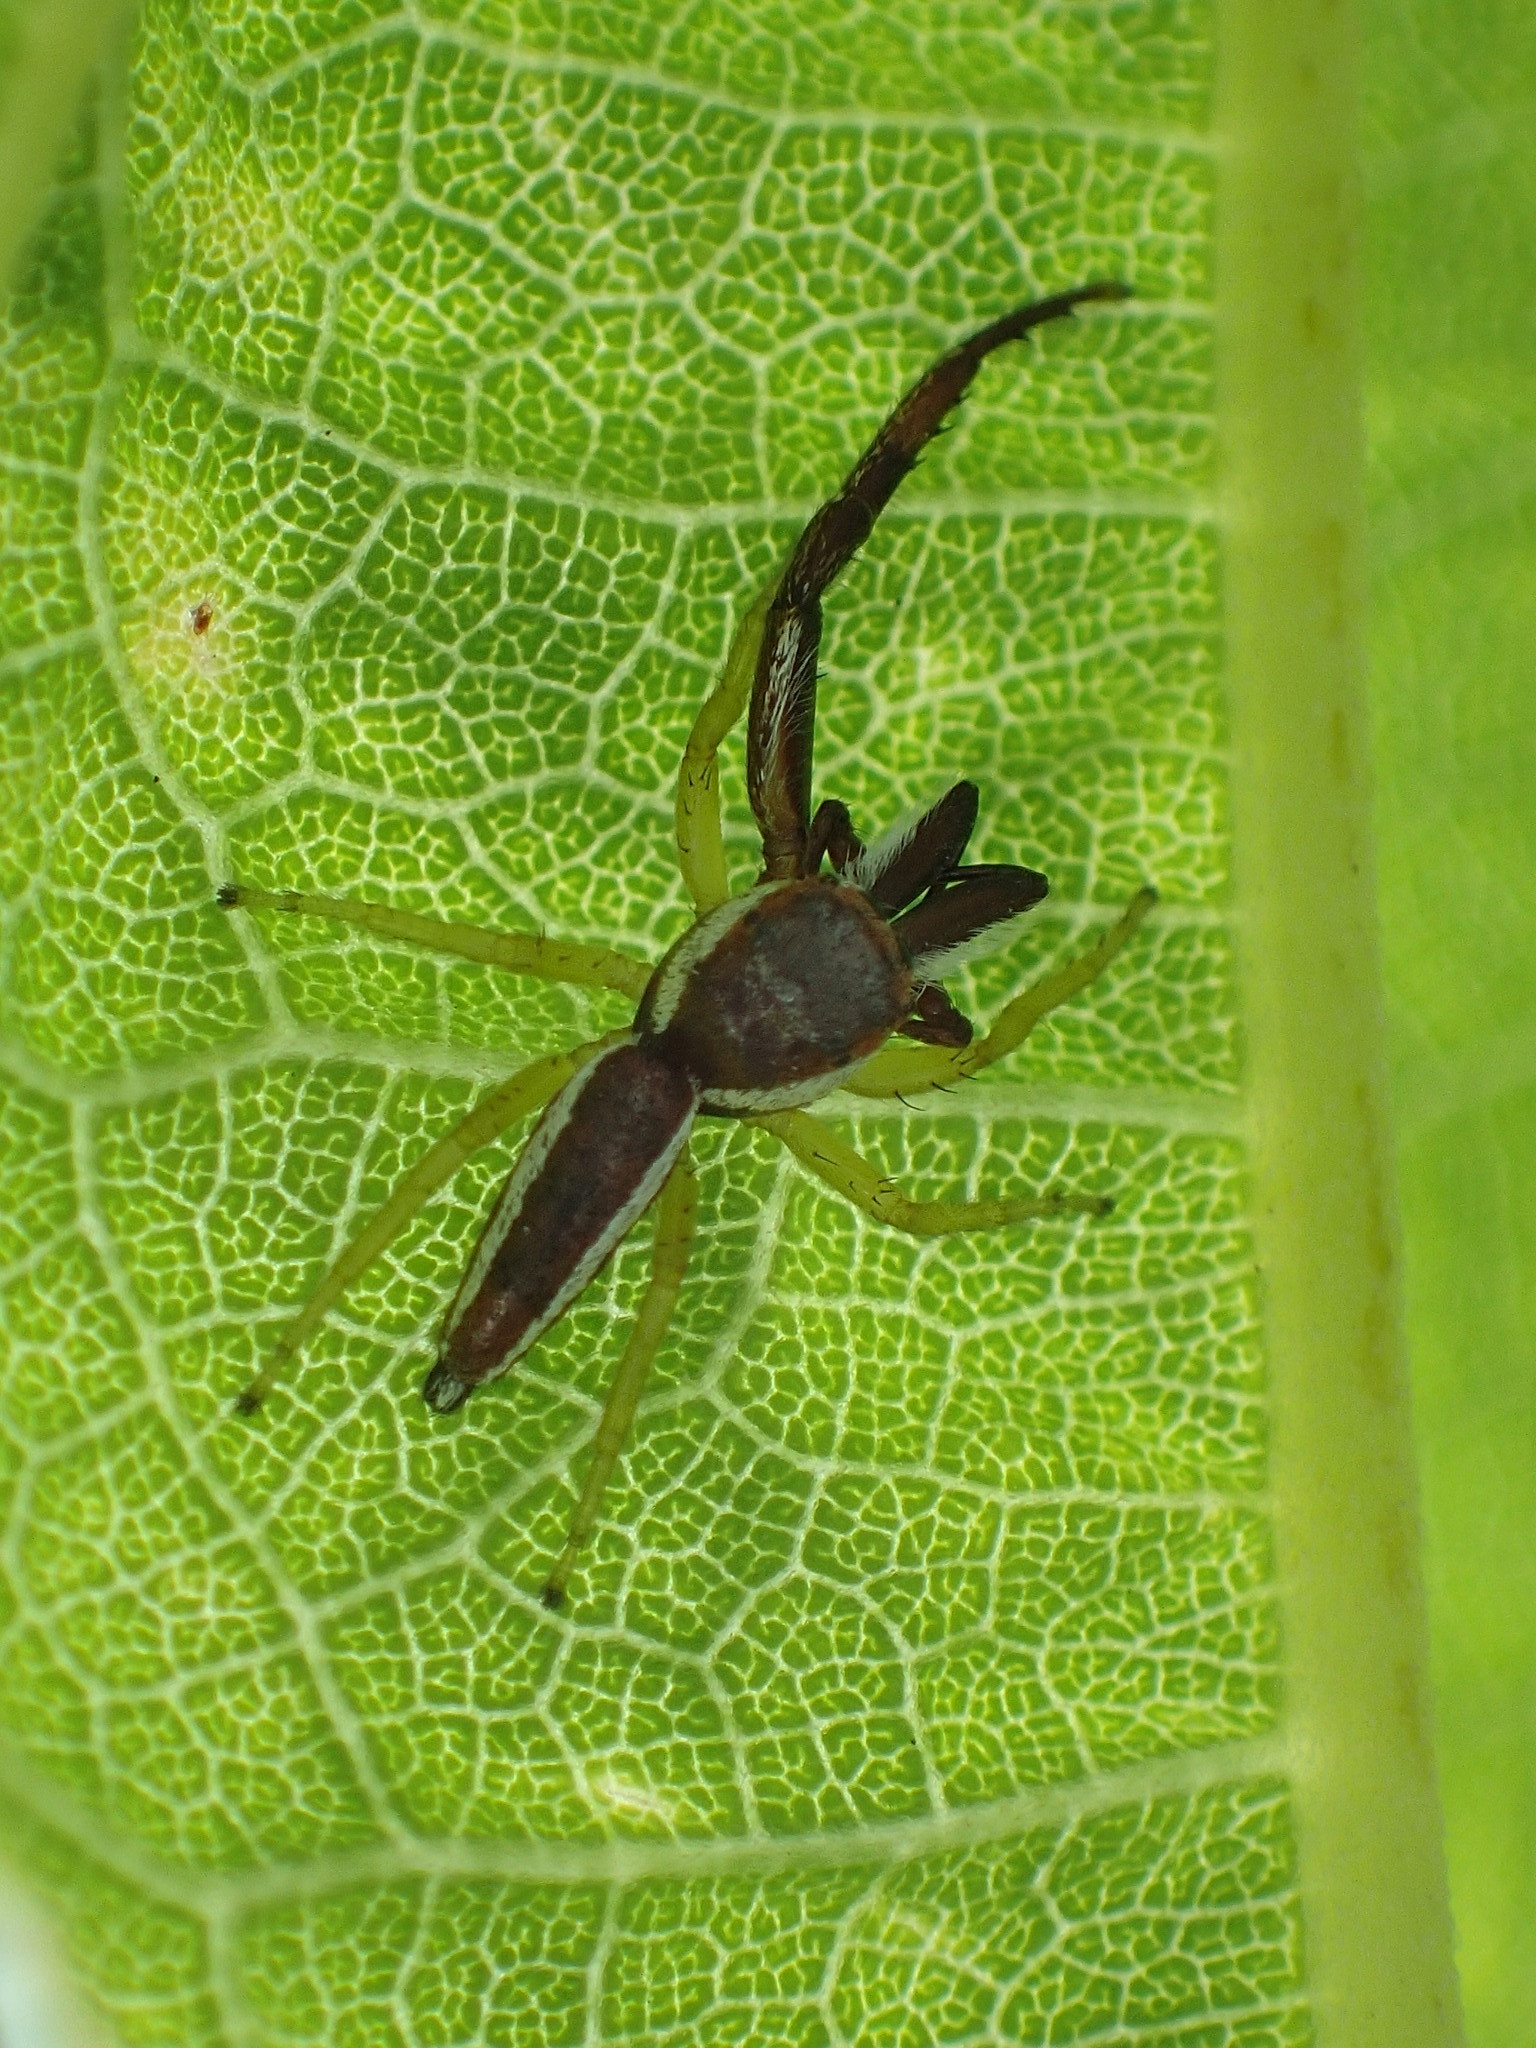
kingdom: Animalia
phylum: Arthropoda
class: Arachnida
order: Araneae
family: Salticidae
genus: Hentzia
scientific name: Hentzia palmarum
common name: Common hentz jumping spider
